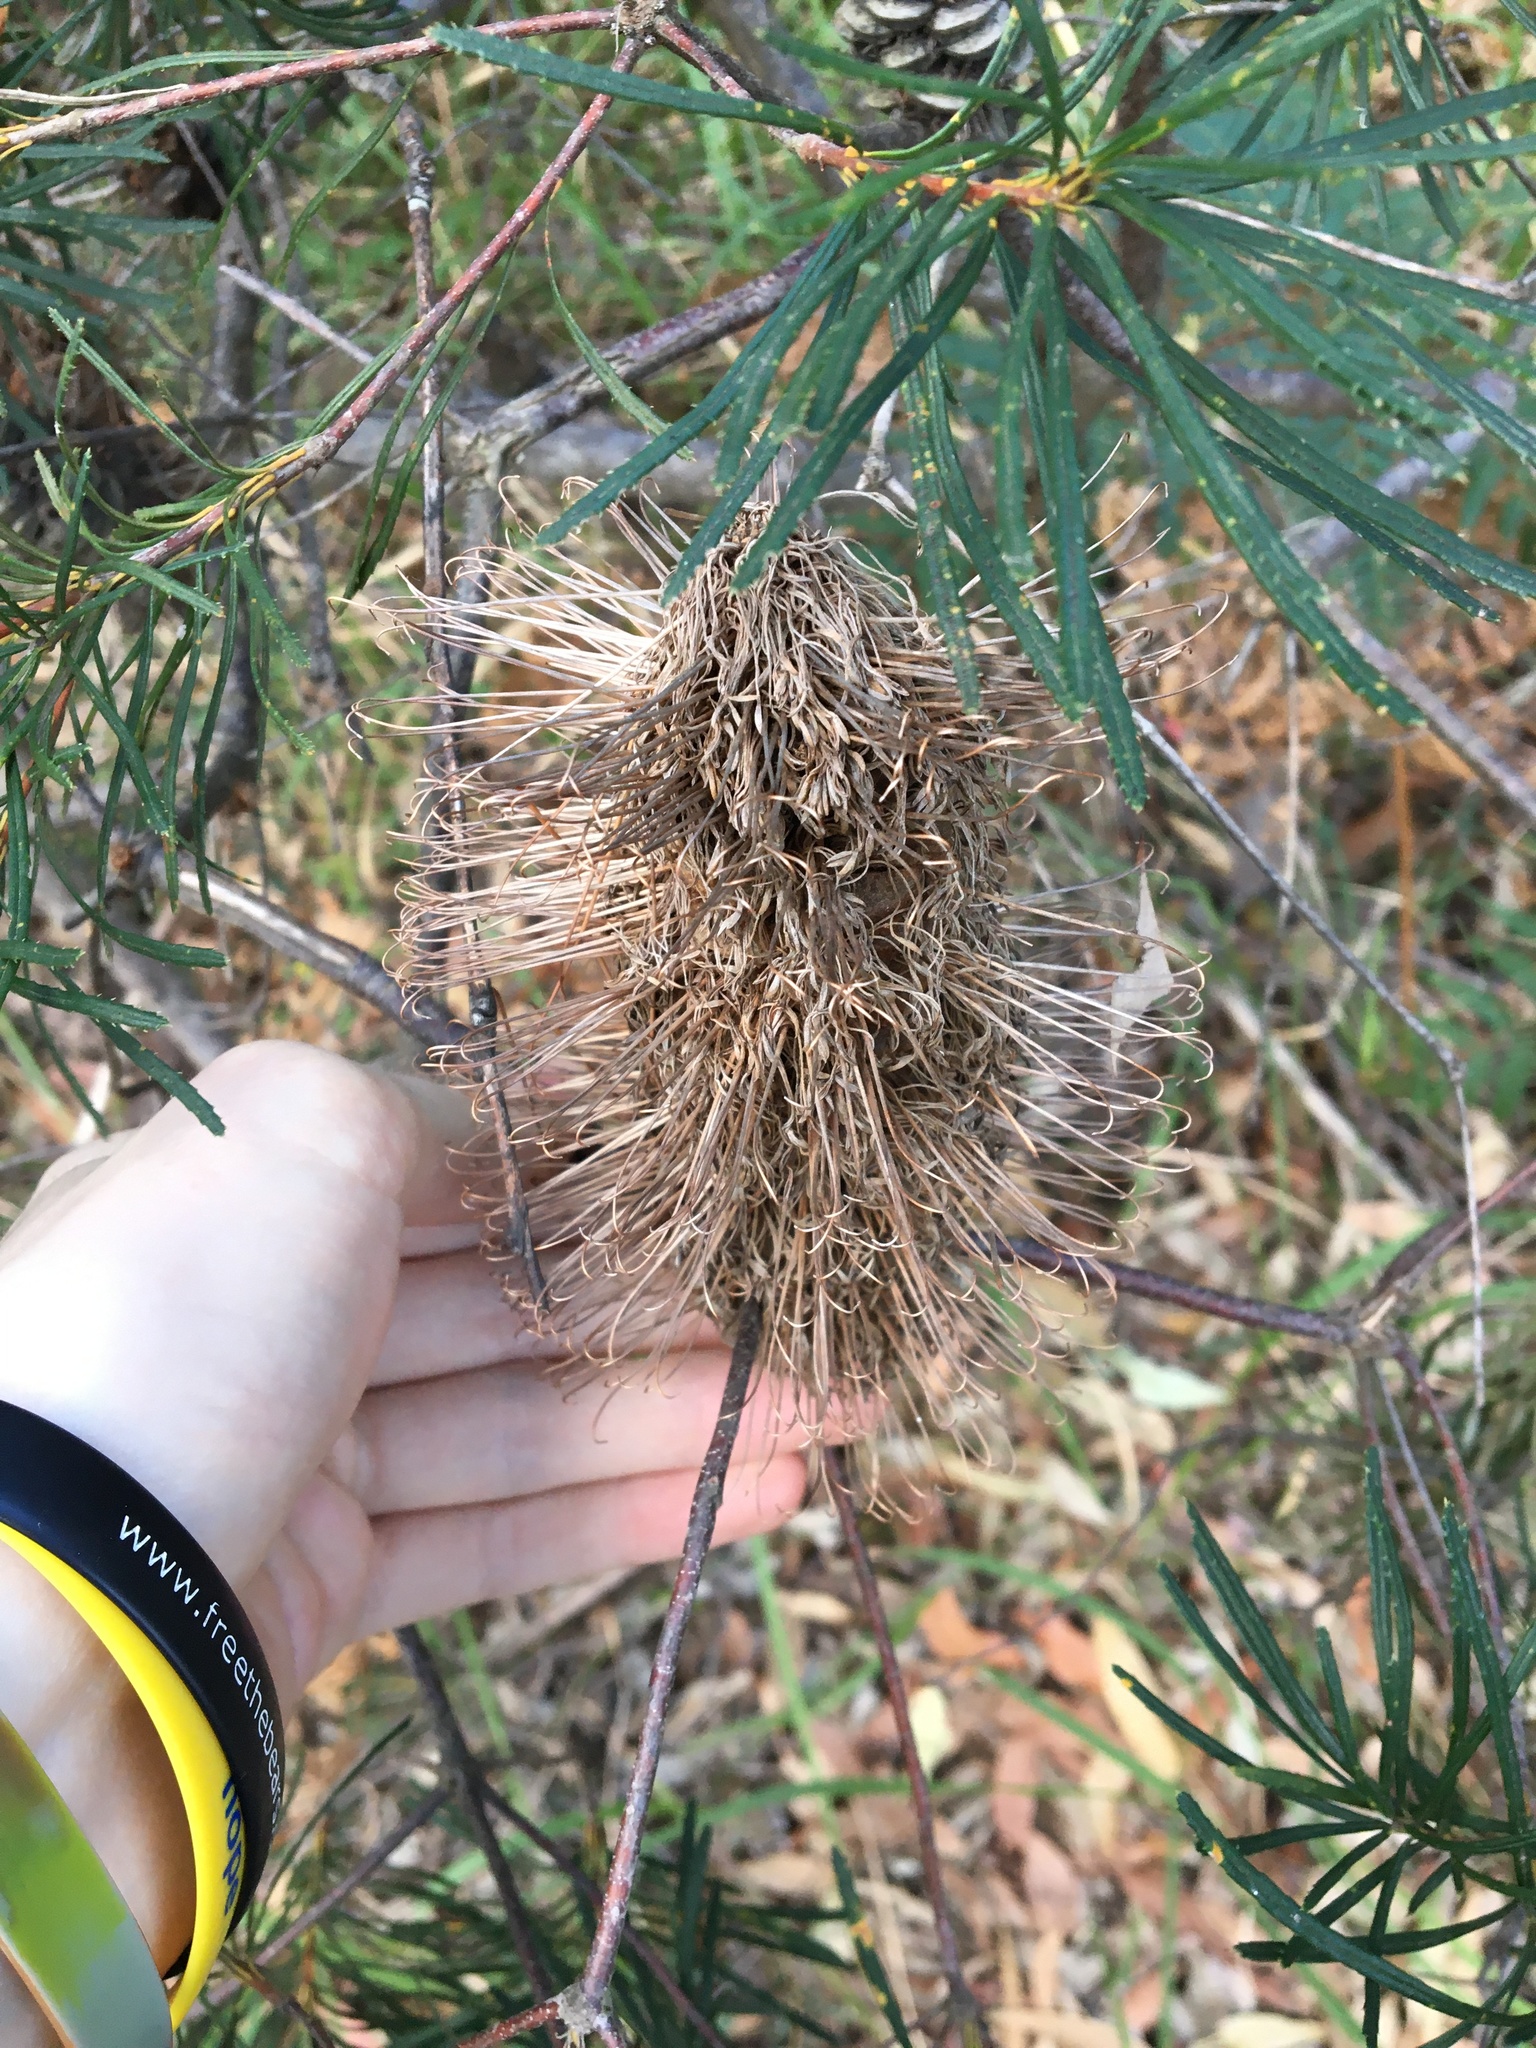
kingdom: Plantae
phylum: Tracheophyta
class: Magnoliopsida
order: Proteales
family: Proteaceae
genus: Banksia
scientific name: Banksia spinulosa
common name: Hairpin banksia
